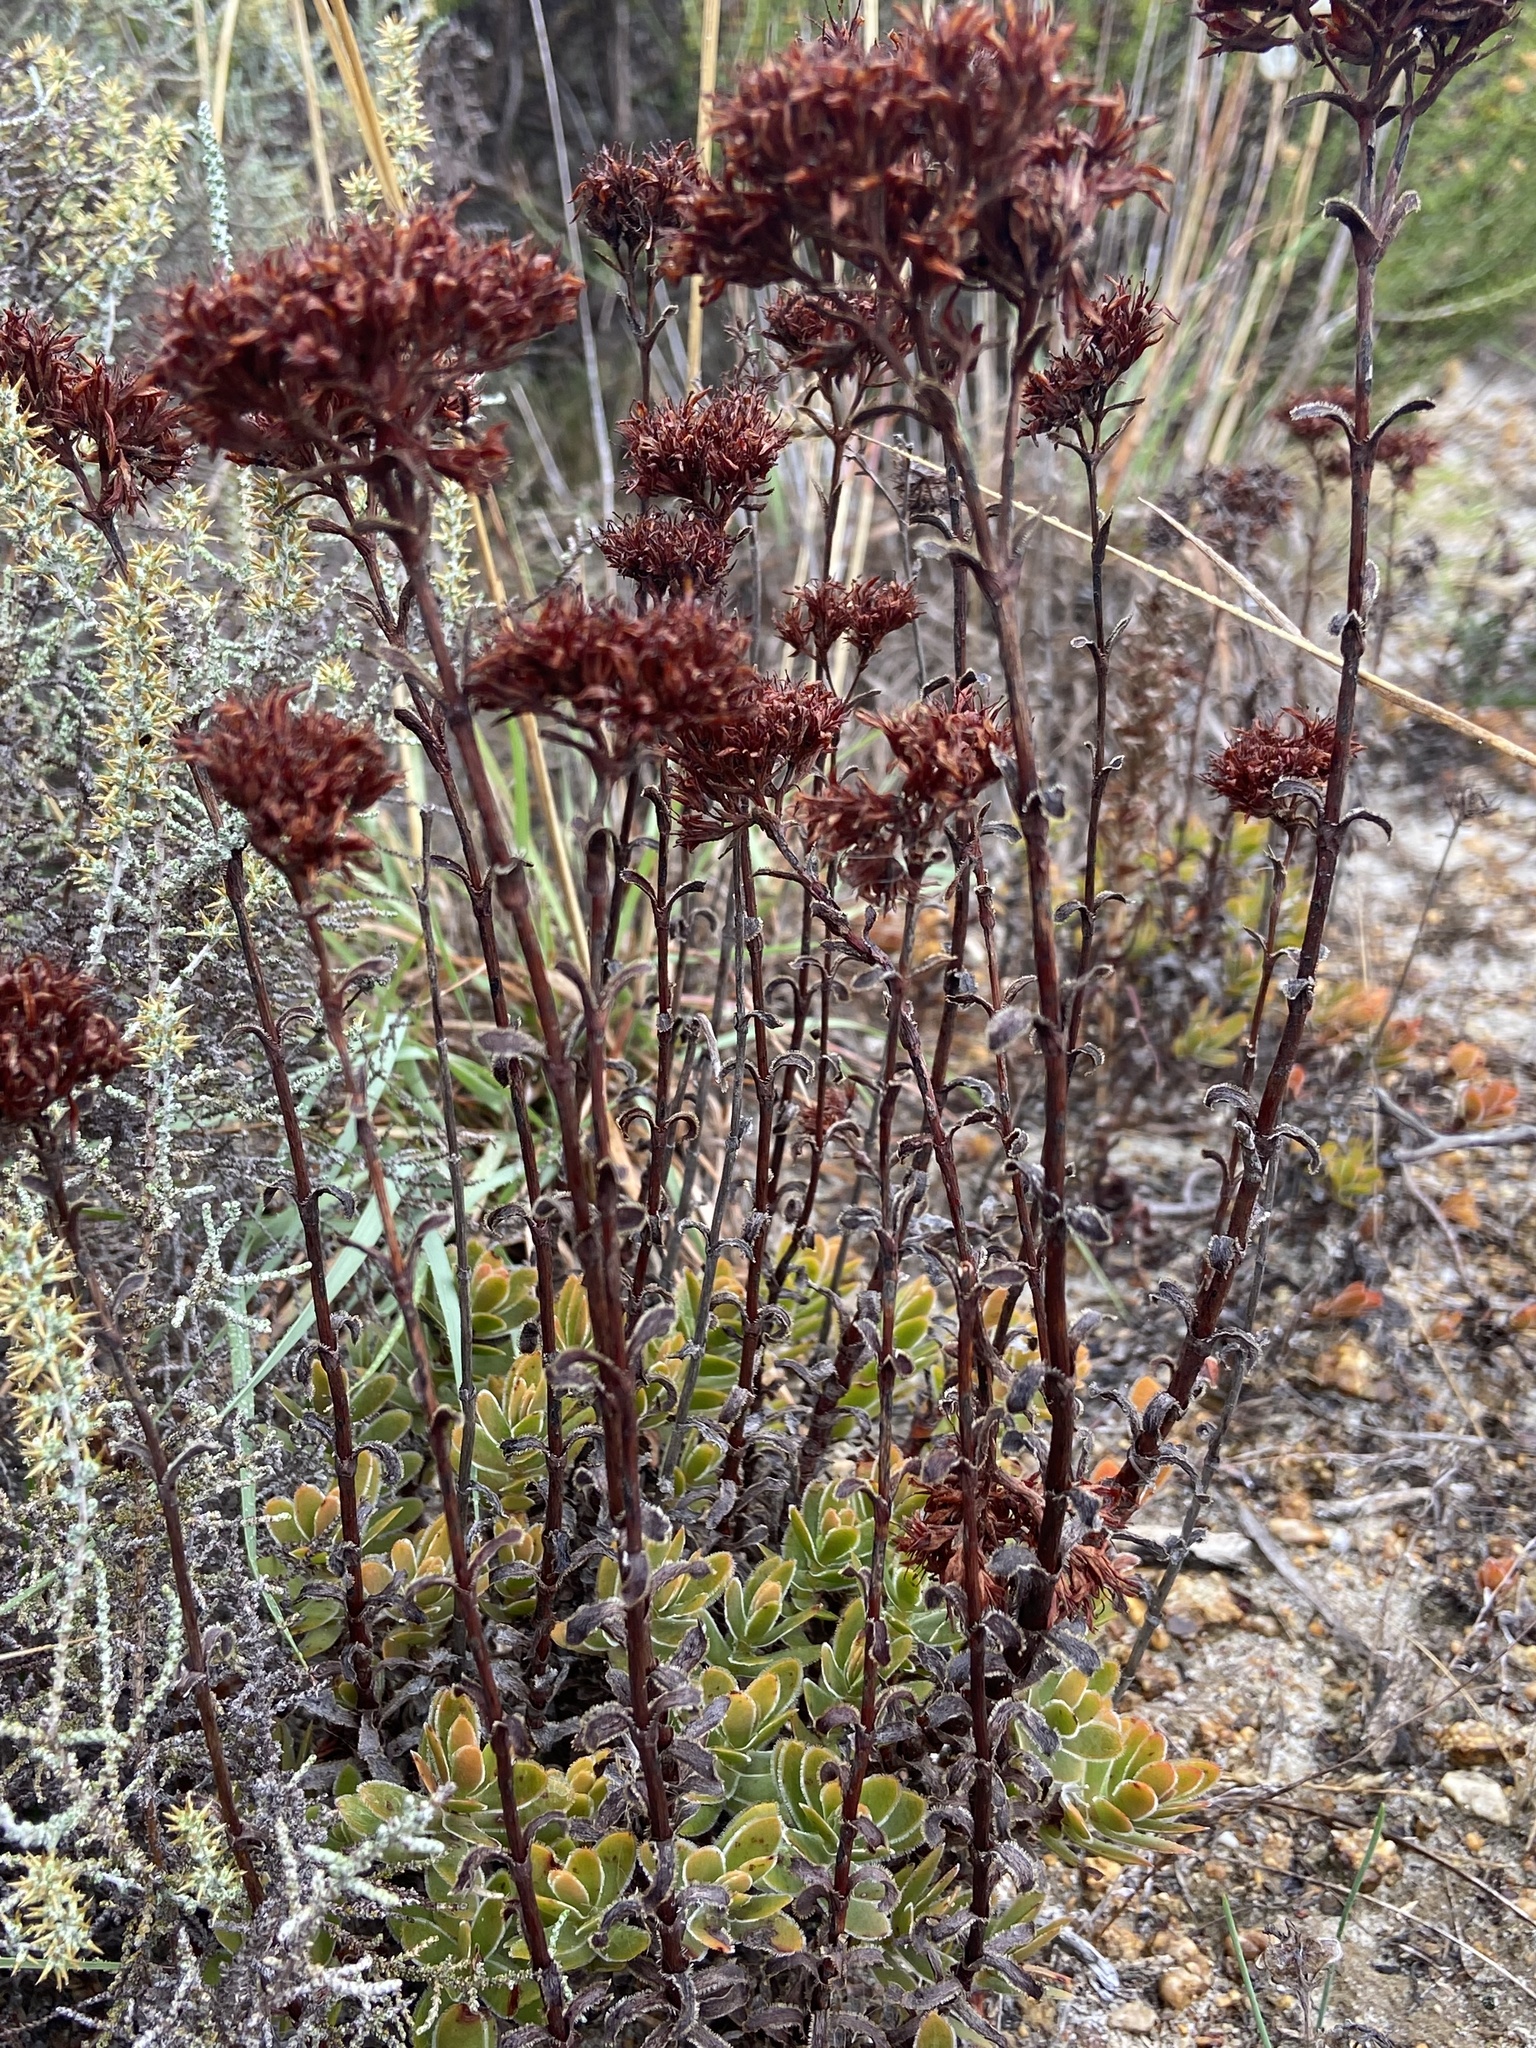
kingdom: Plantae
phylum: Tracheophyta
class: Magnoliopsida
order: Saxifragales
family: Crassulaceae
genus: Crassula
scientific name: Crassula fallax
